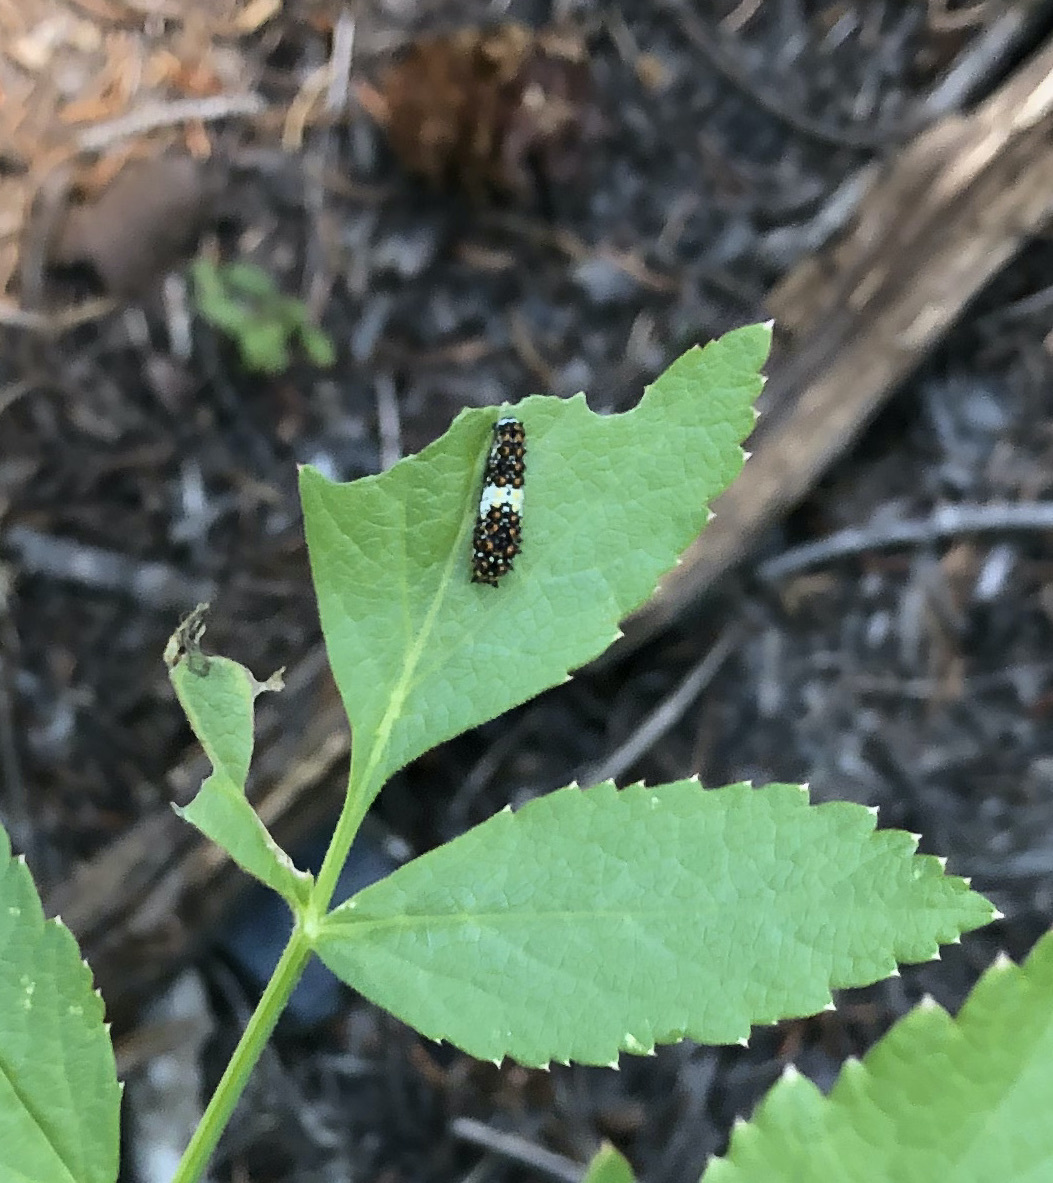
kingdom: Animalia
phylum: Arthropoda
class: Insecta
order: Lepidoptera
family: Papilionidae
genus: Papilio
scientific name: Papilio zelicaon
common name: Anise swallowtail
